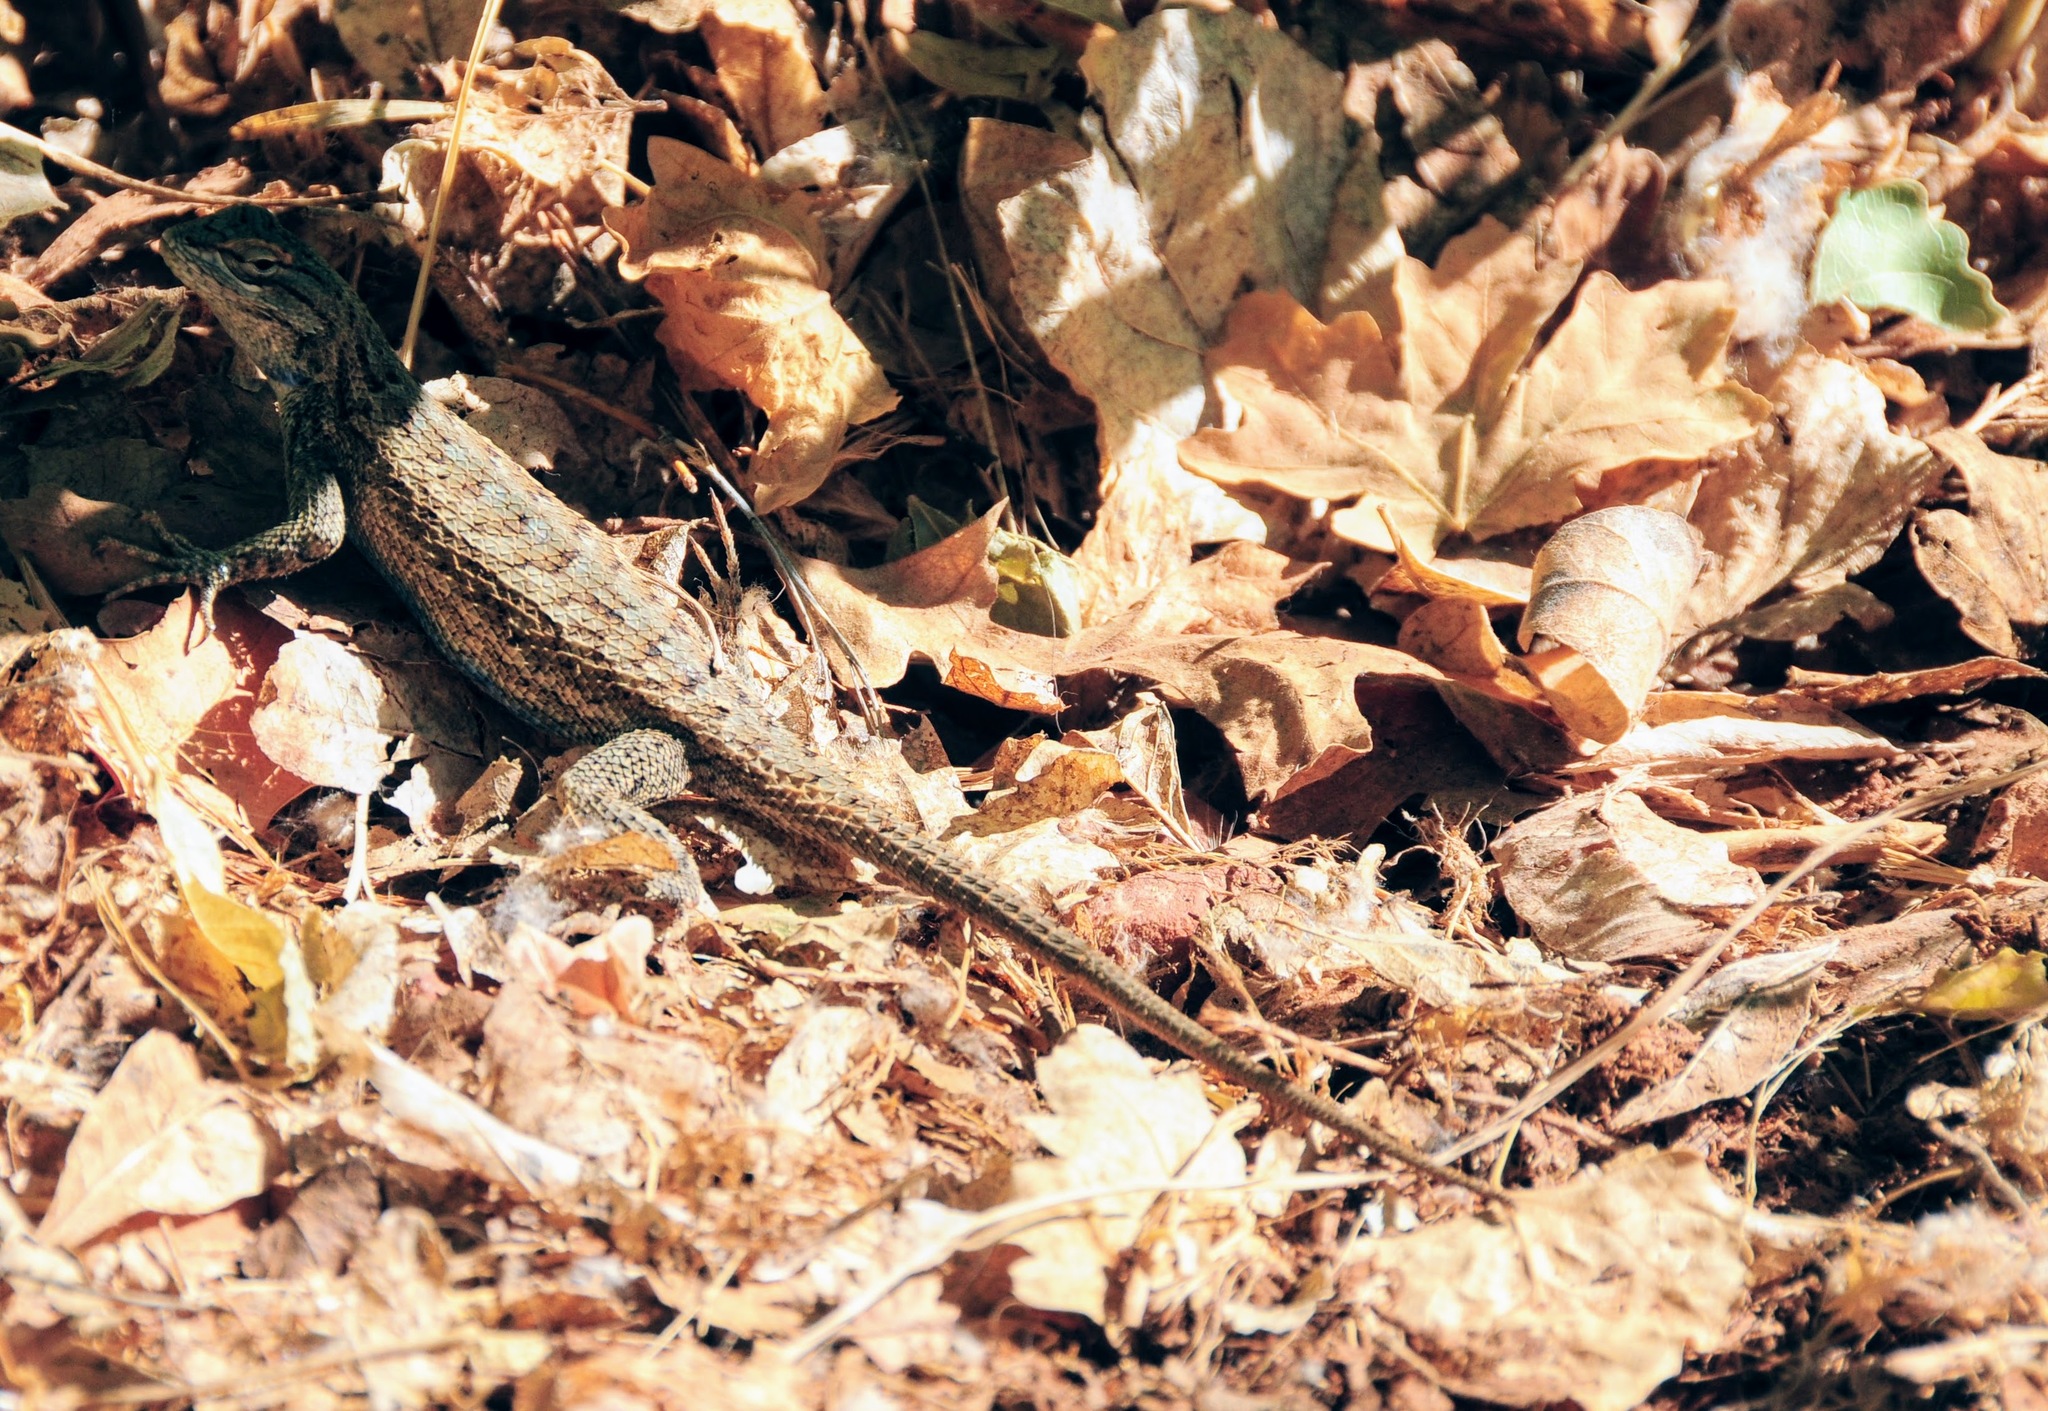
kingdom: Animalia
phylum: Chordata
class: Squamata
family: Phrynosomatidae
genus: Sceloporus
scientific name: Sceloporus tristichus
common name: Plateau fence lizard
